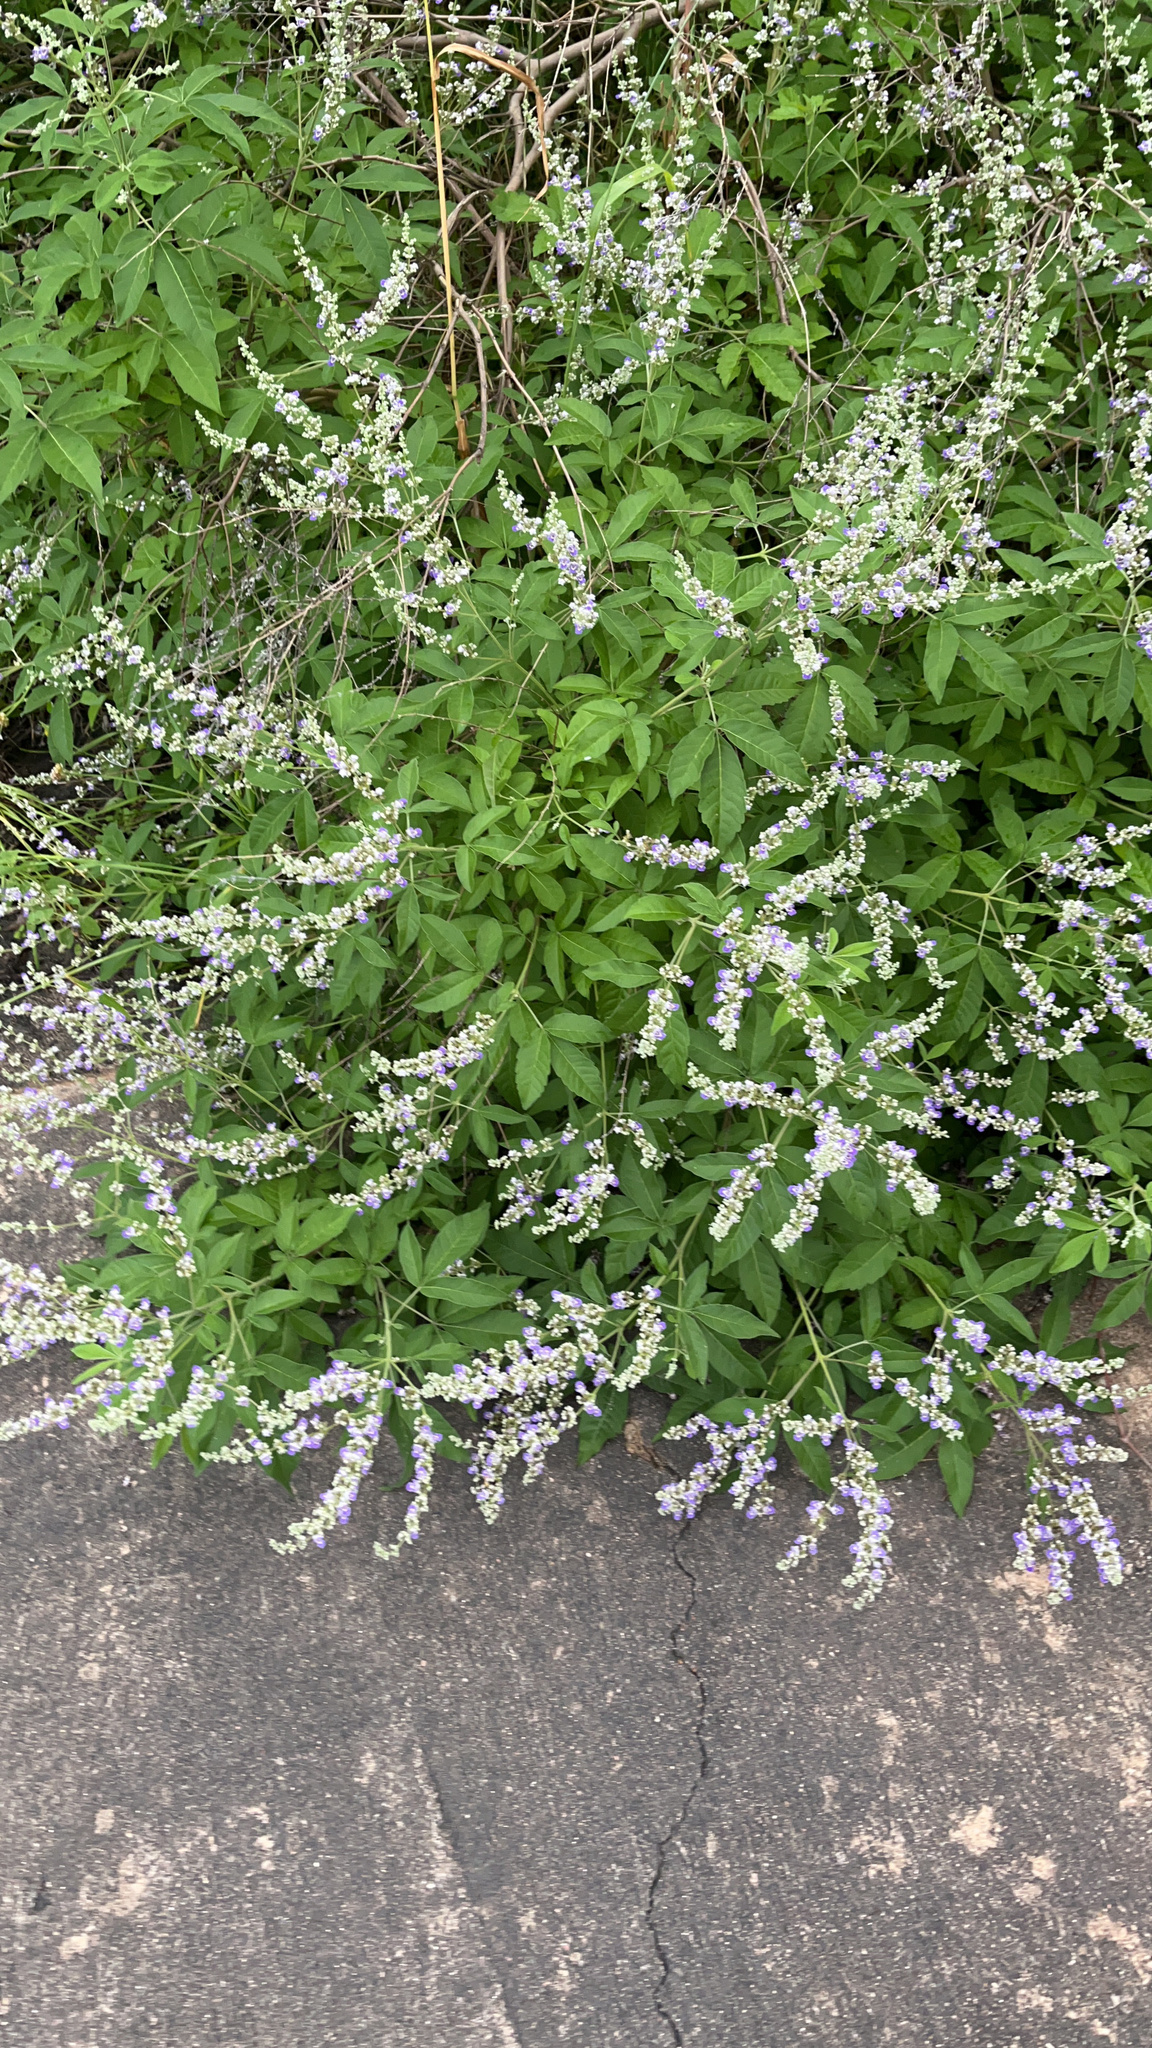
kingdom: Plantae
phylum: Tracheophyta
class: Magnoliopsida
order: Lamiales
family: Lamiaceae
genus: Vitex
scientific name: Vitex negundo
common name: Chinese chastetree
